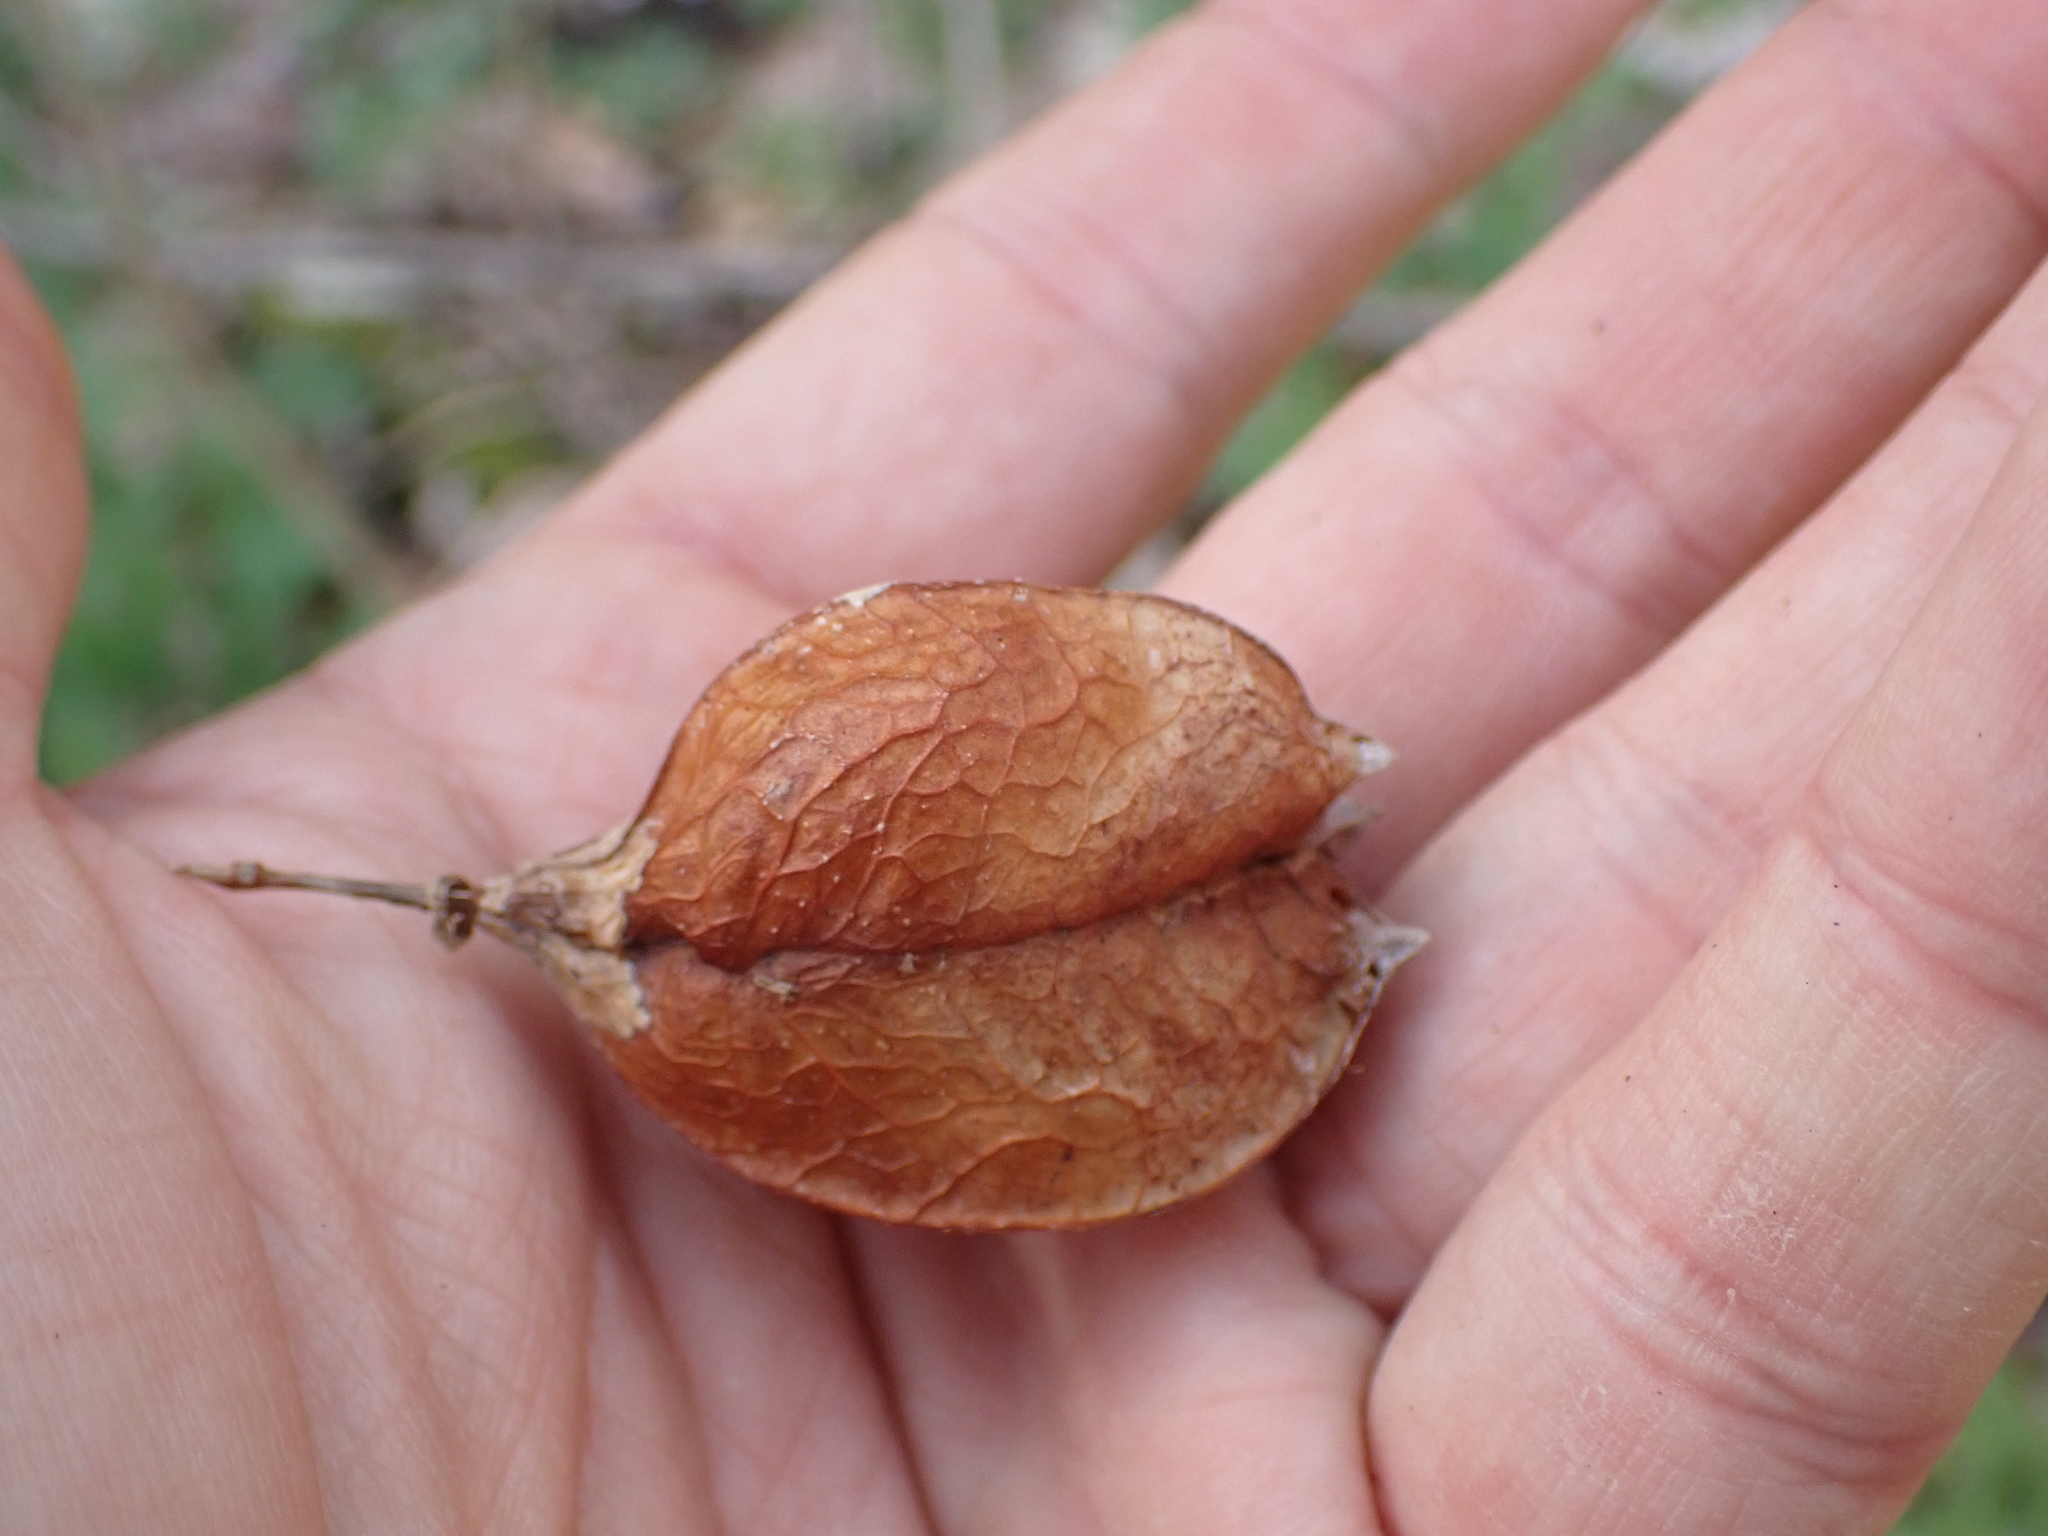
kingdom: Plantae
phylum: Tracheophyta
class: Magnoliopsida
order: Crossosomatales
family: Staphyleaceae
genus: Staphylea
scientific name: Staphylea trifolia
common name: American bladdernut
